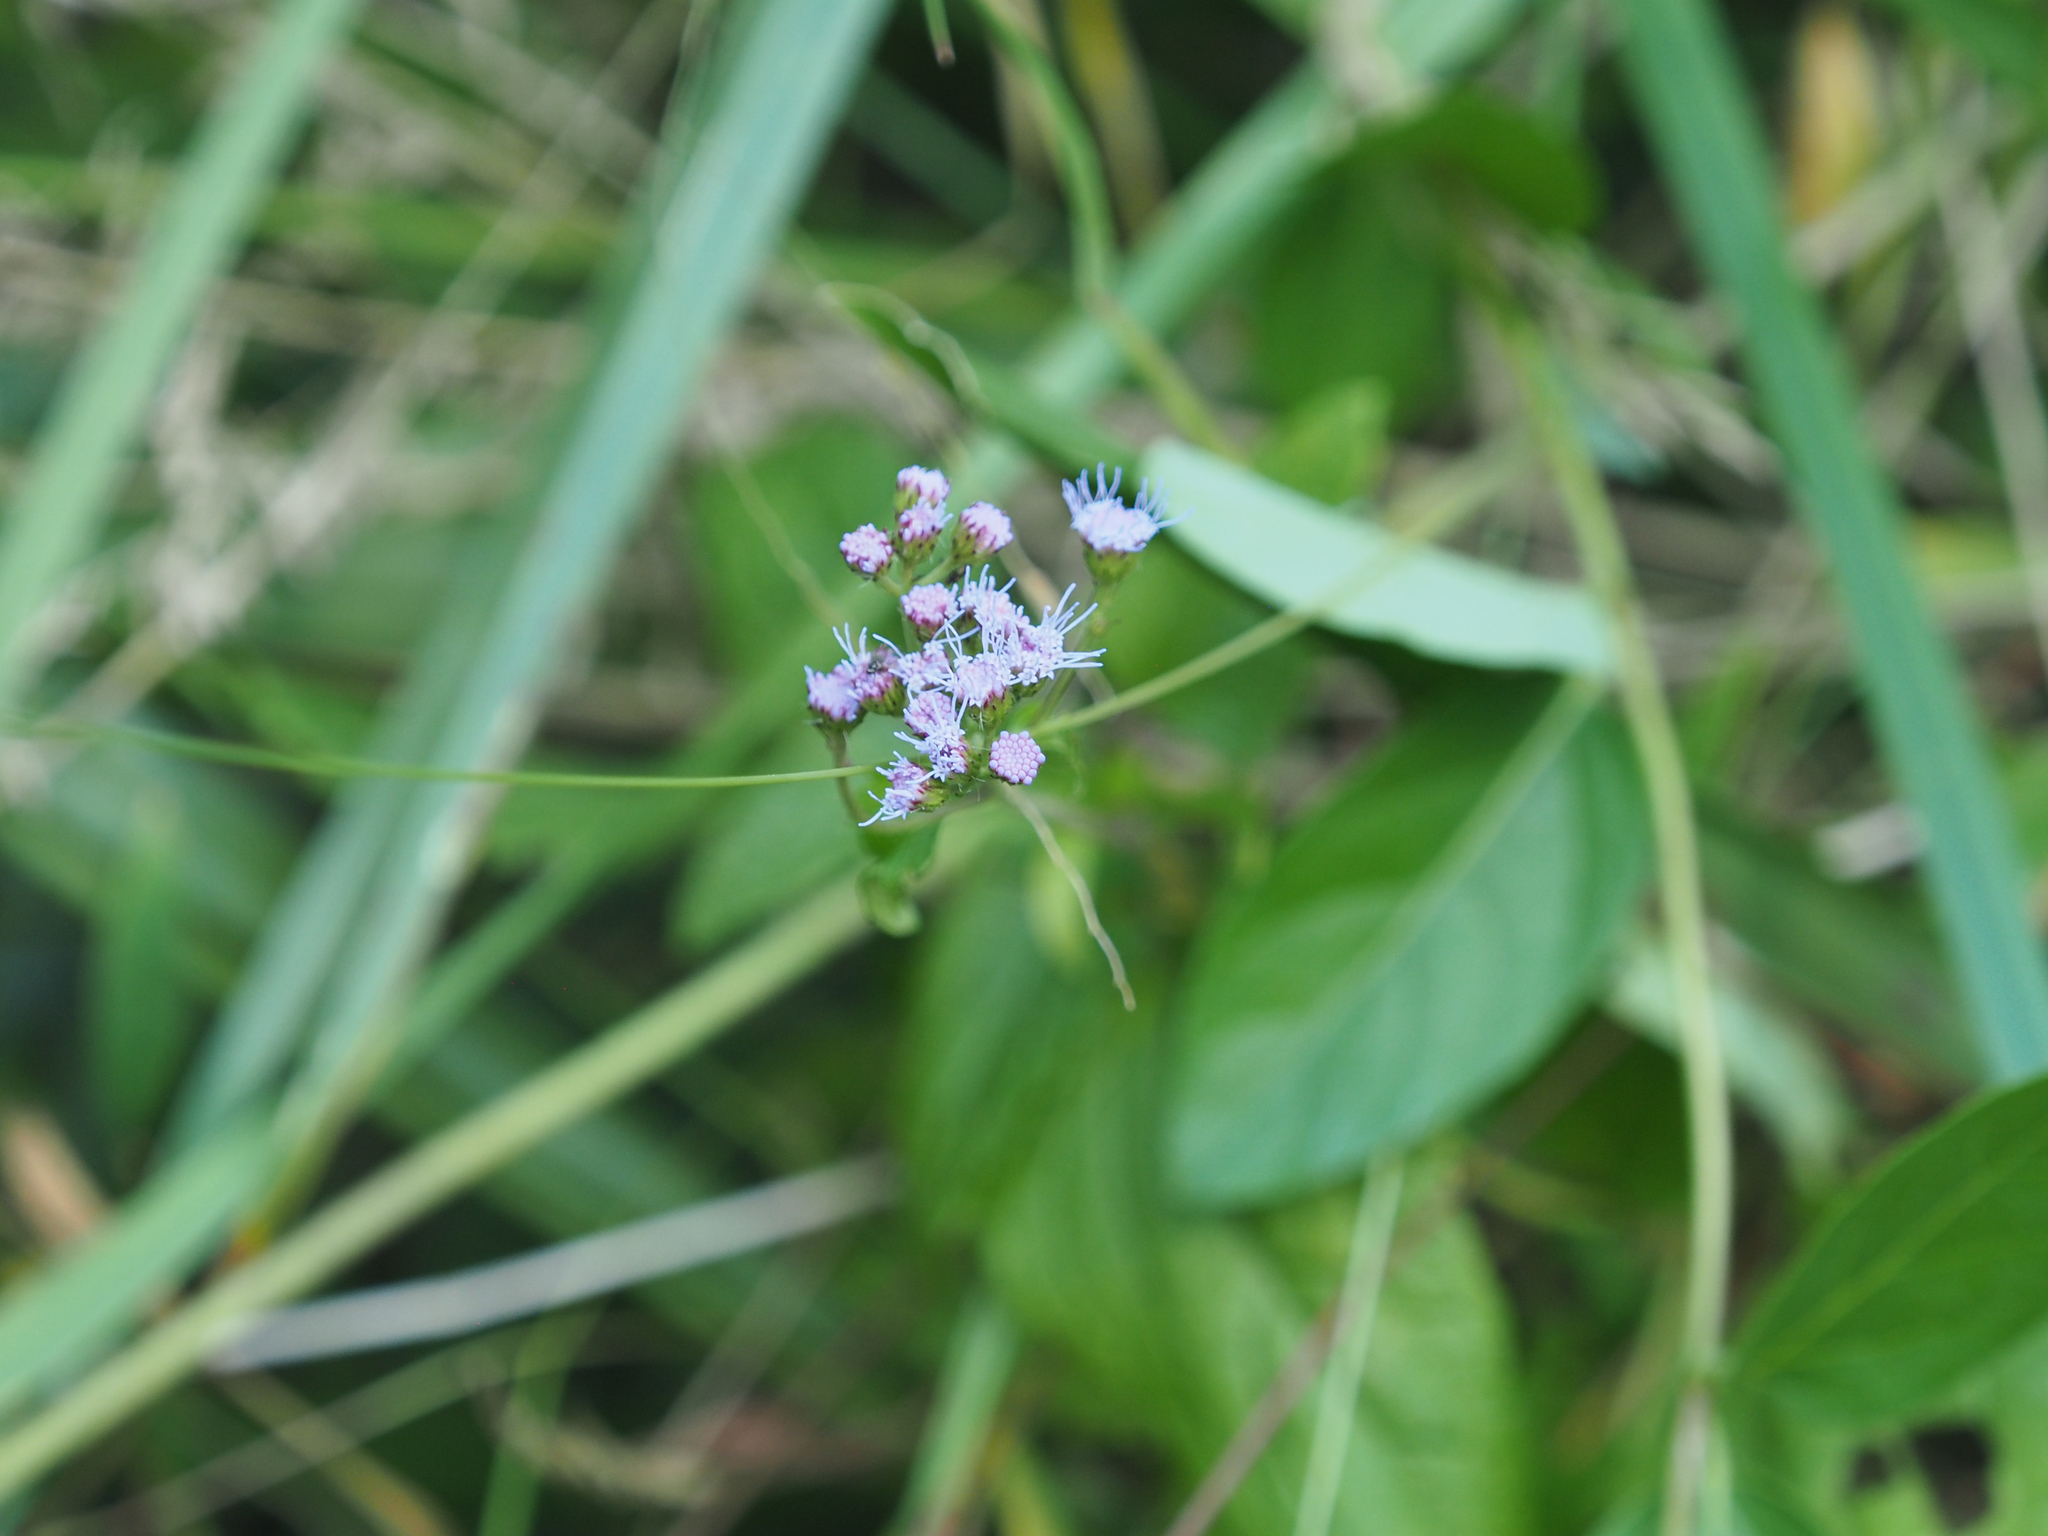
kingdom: Plantae
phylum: Tracheophyta
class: Magnoliopsida
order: Asterales
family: Asteraceae
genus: Conoclinium
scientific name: Conoclinium coelestinum
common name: Blue mistflower
